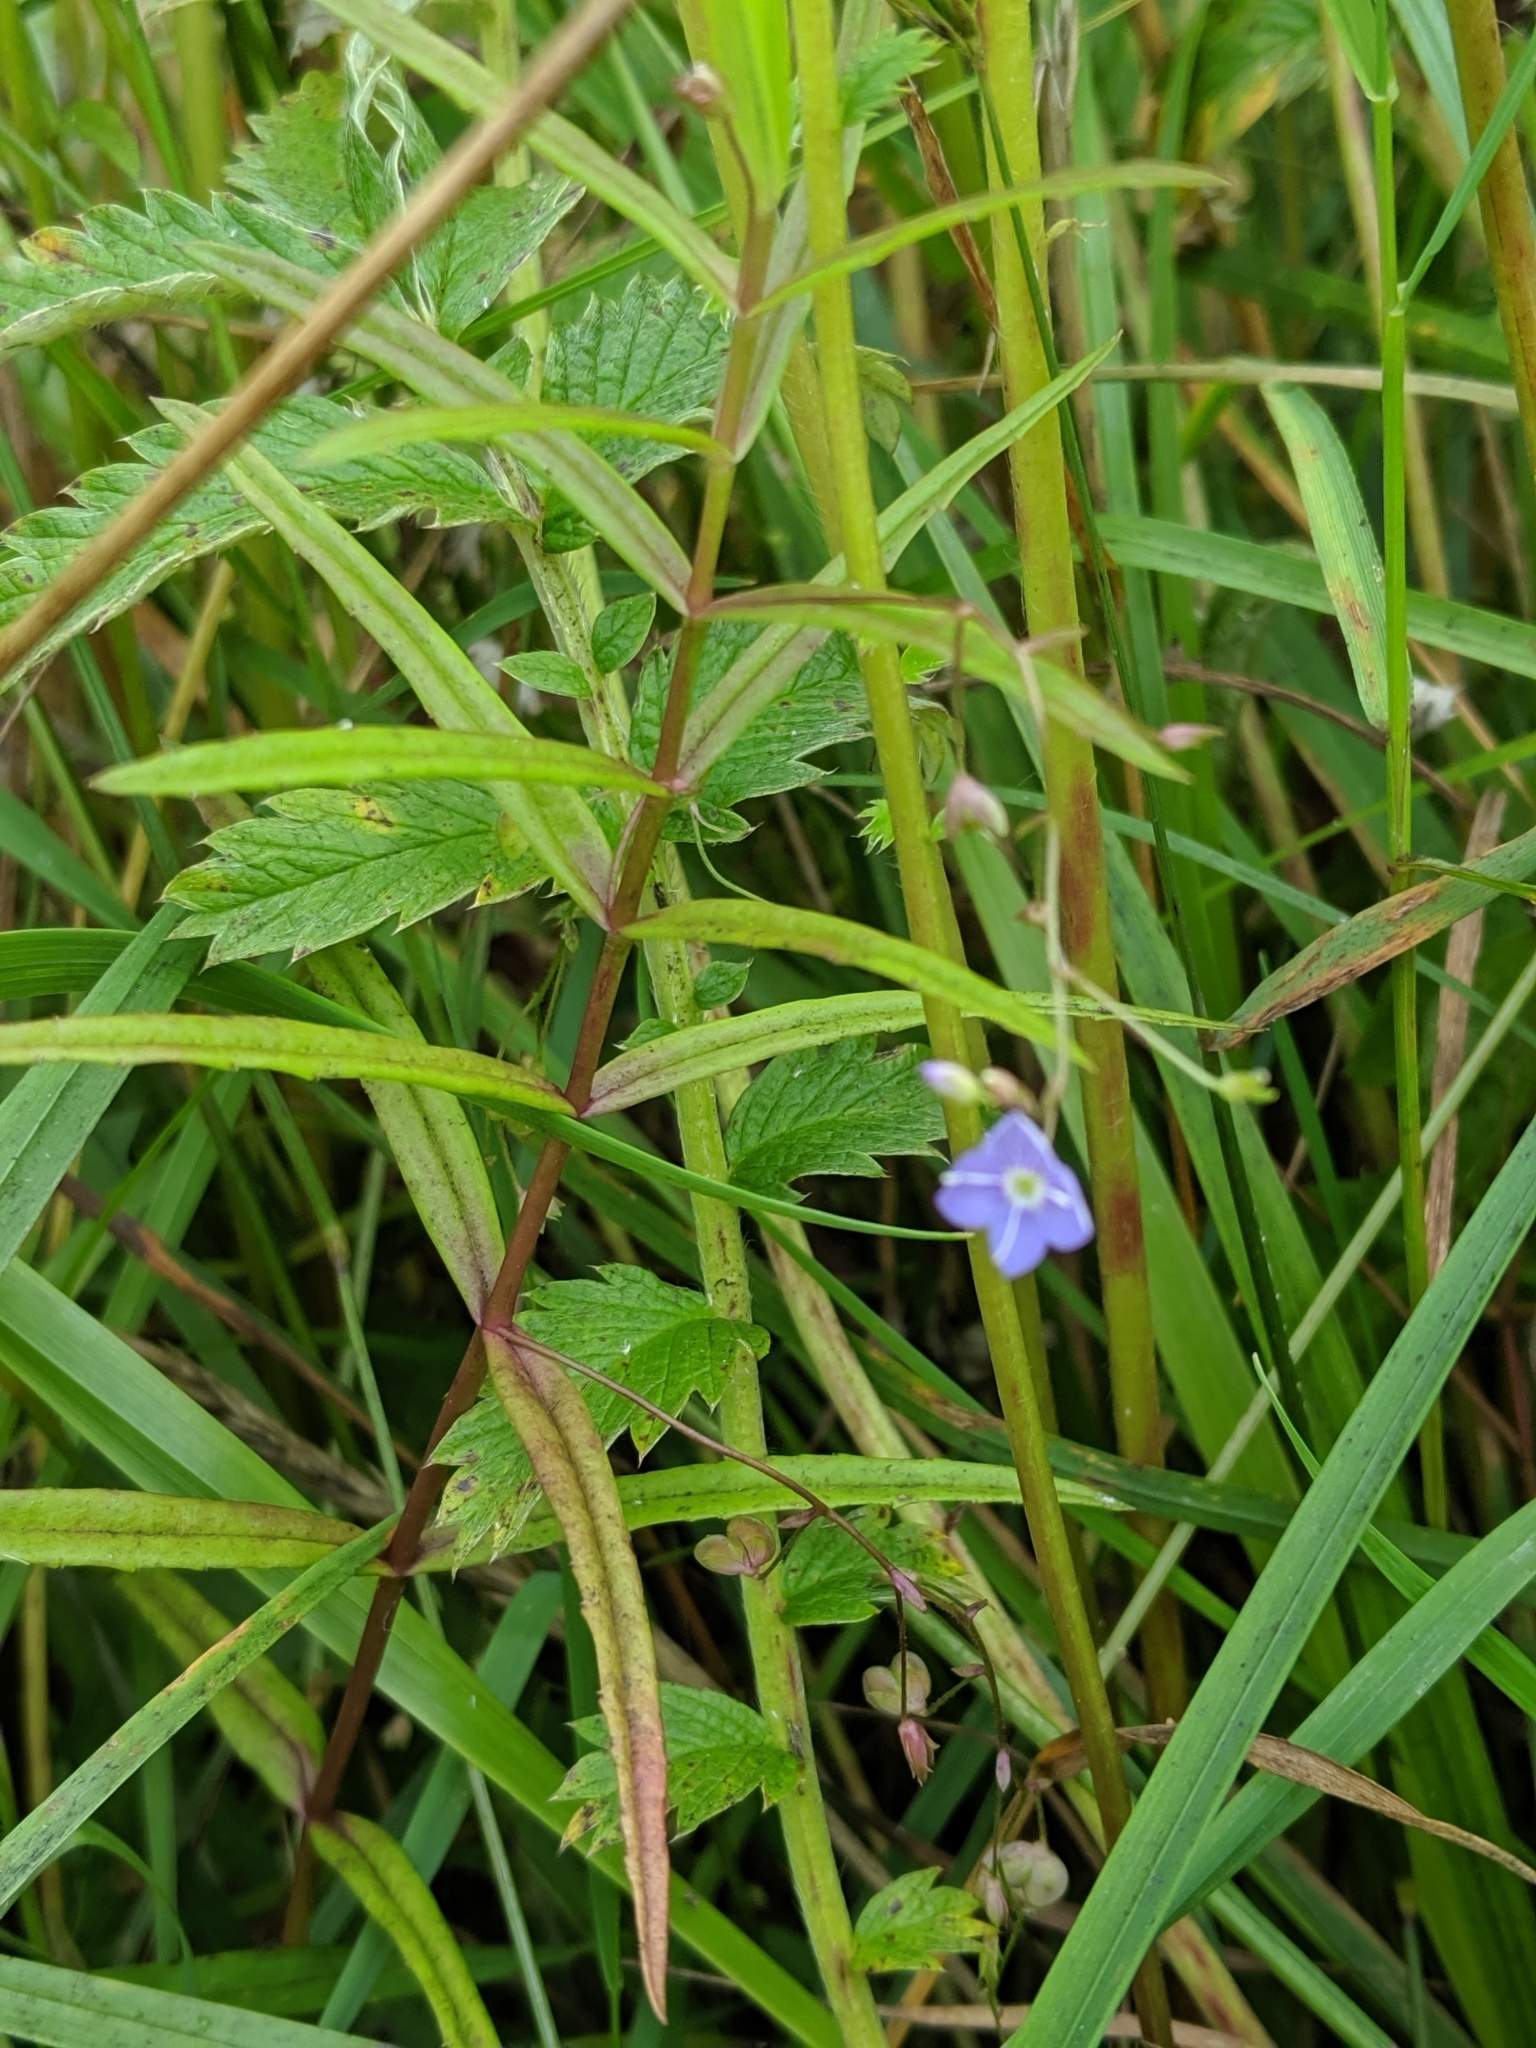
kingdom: Plantae
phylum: Tracheophyta
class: Magnoliopsida
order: Lamiales
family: Plantaginaceae
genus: Veronica
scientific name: Veronica scutellata
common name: Marsh speedwell
